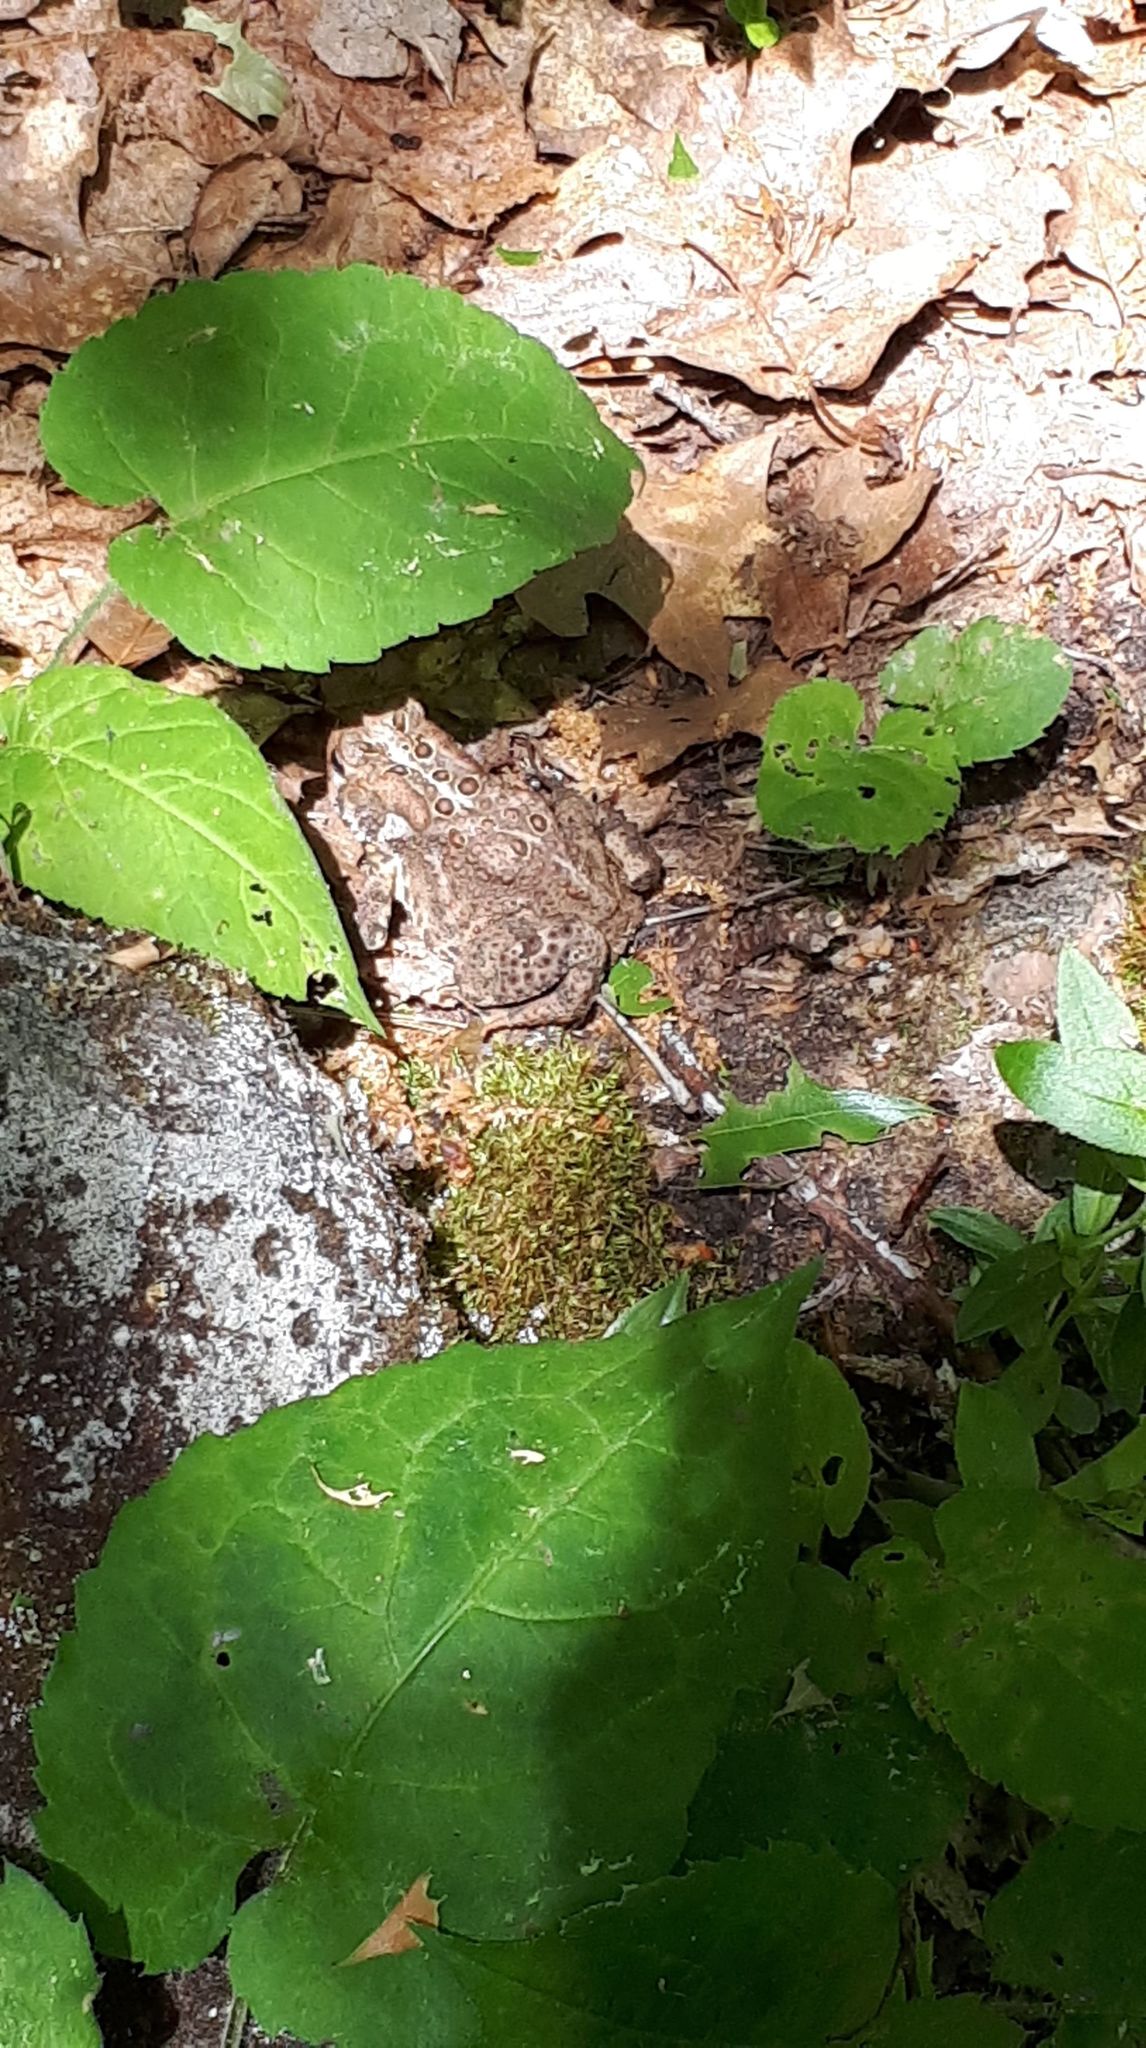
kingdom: Animalia
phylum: Chordata
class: Amphibia
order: Anura
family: Bufonidae
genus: Anaxyrus
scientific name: Anaxyrus americanus
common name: American toad
